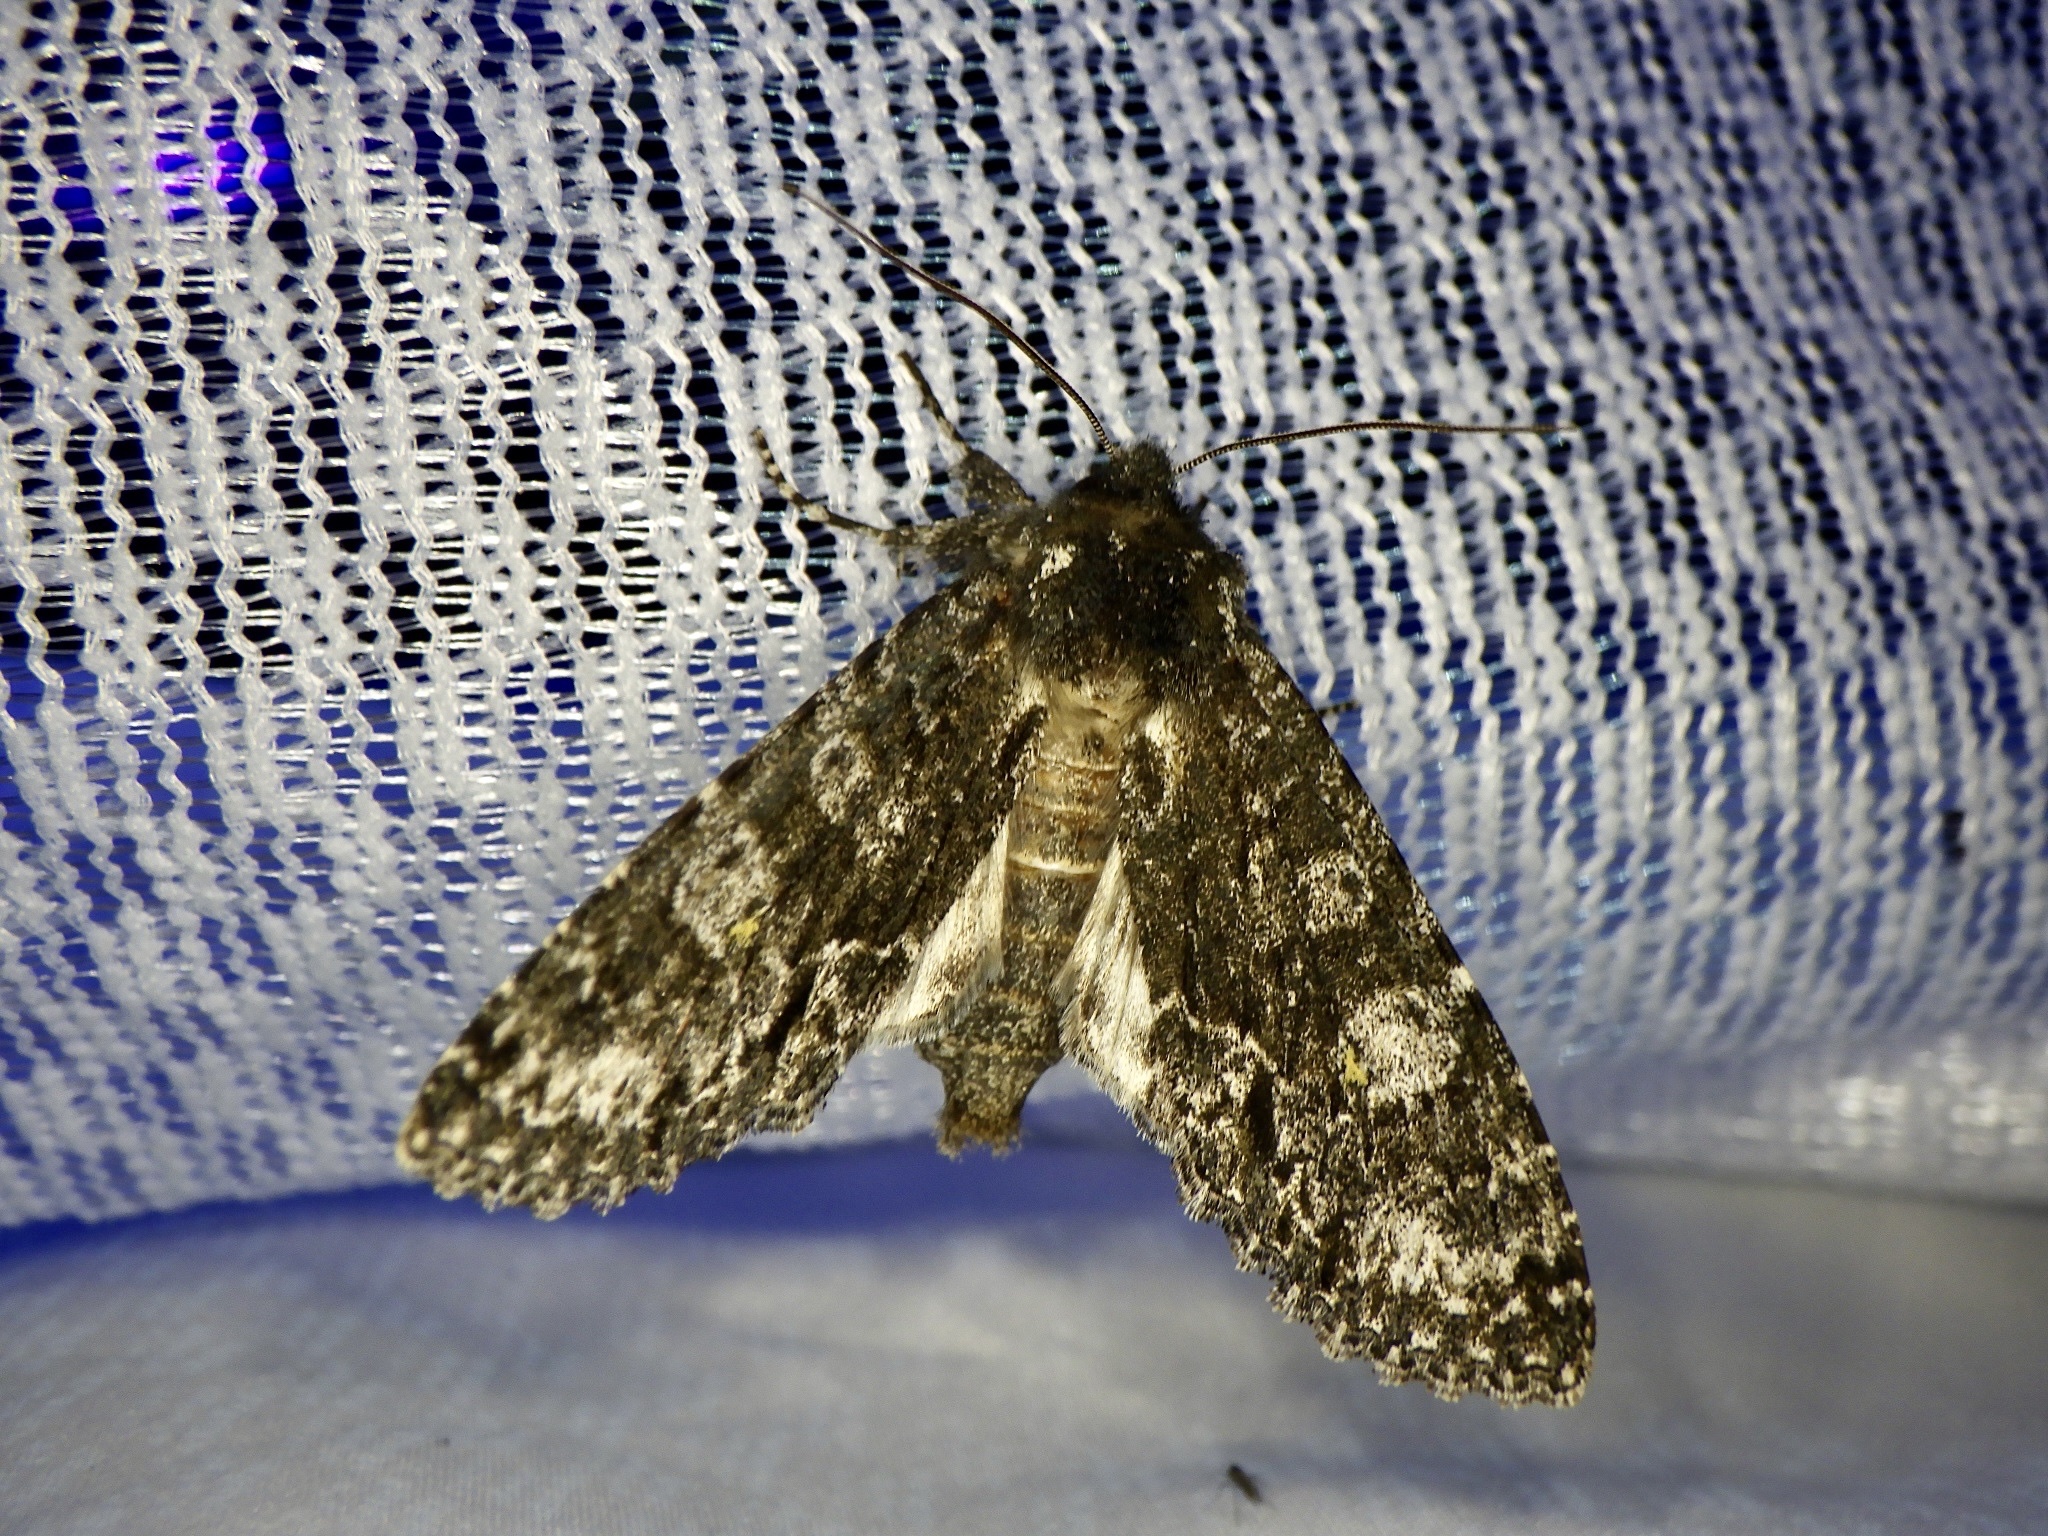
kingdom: Animalia
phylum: Arthropoda
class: Insecta
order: Lepidoptera
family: Noctuidae
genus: Belosticta
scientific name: Belosticta funesta
